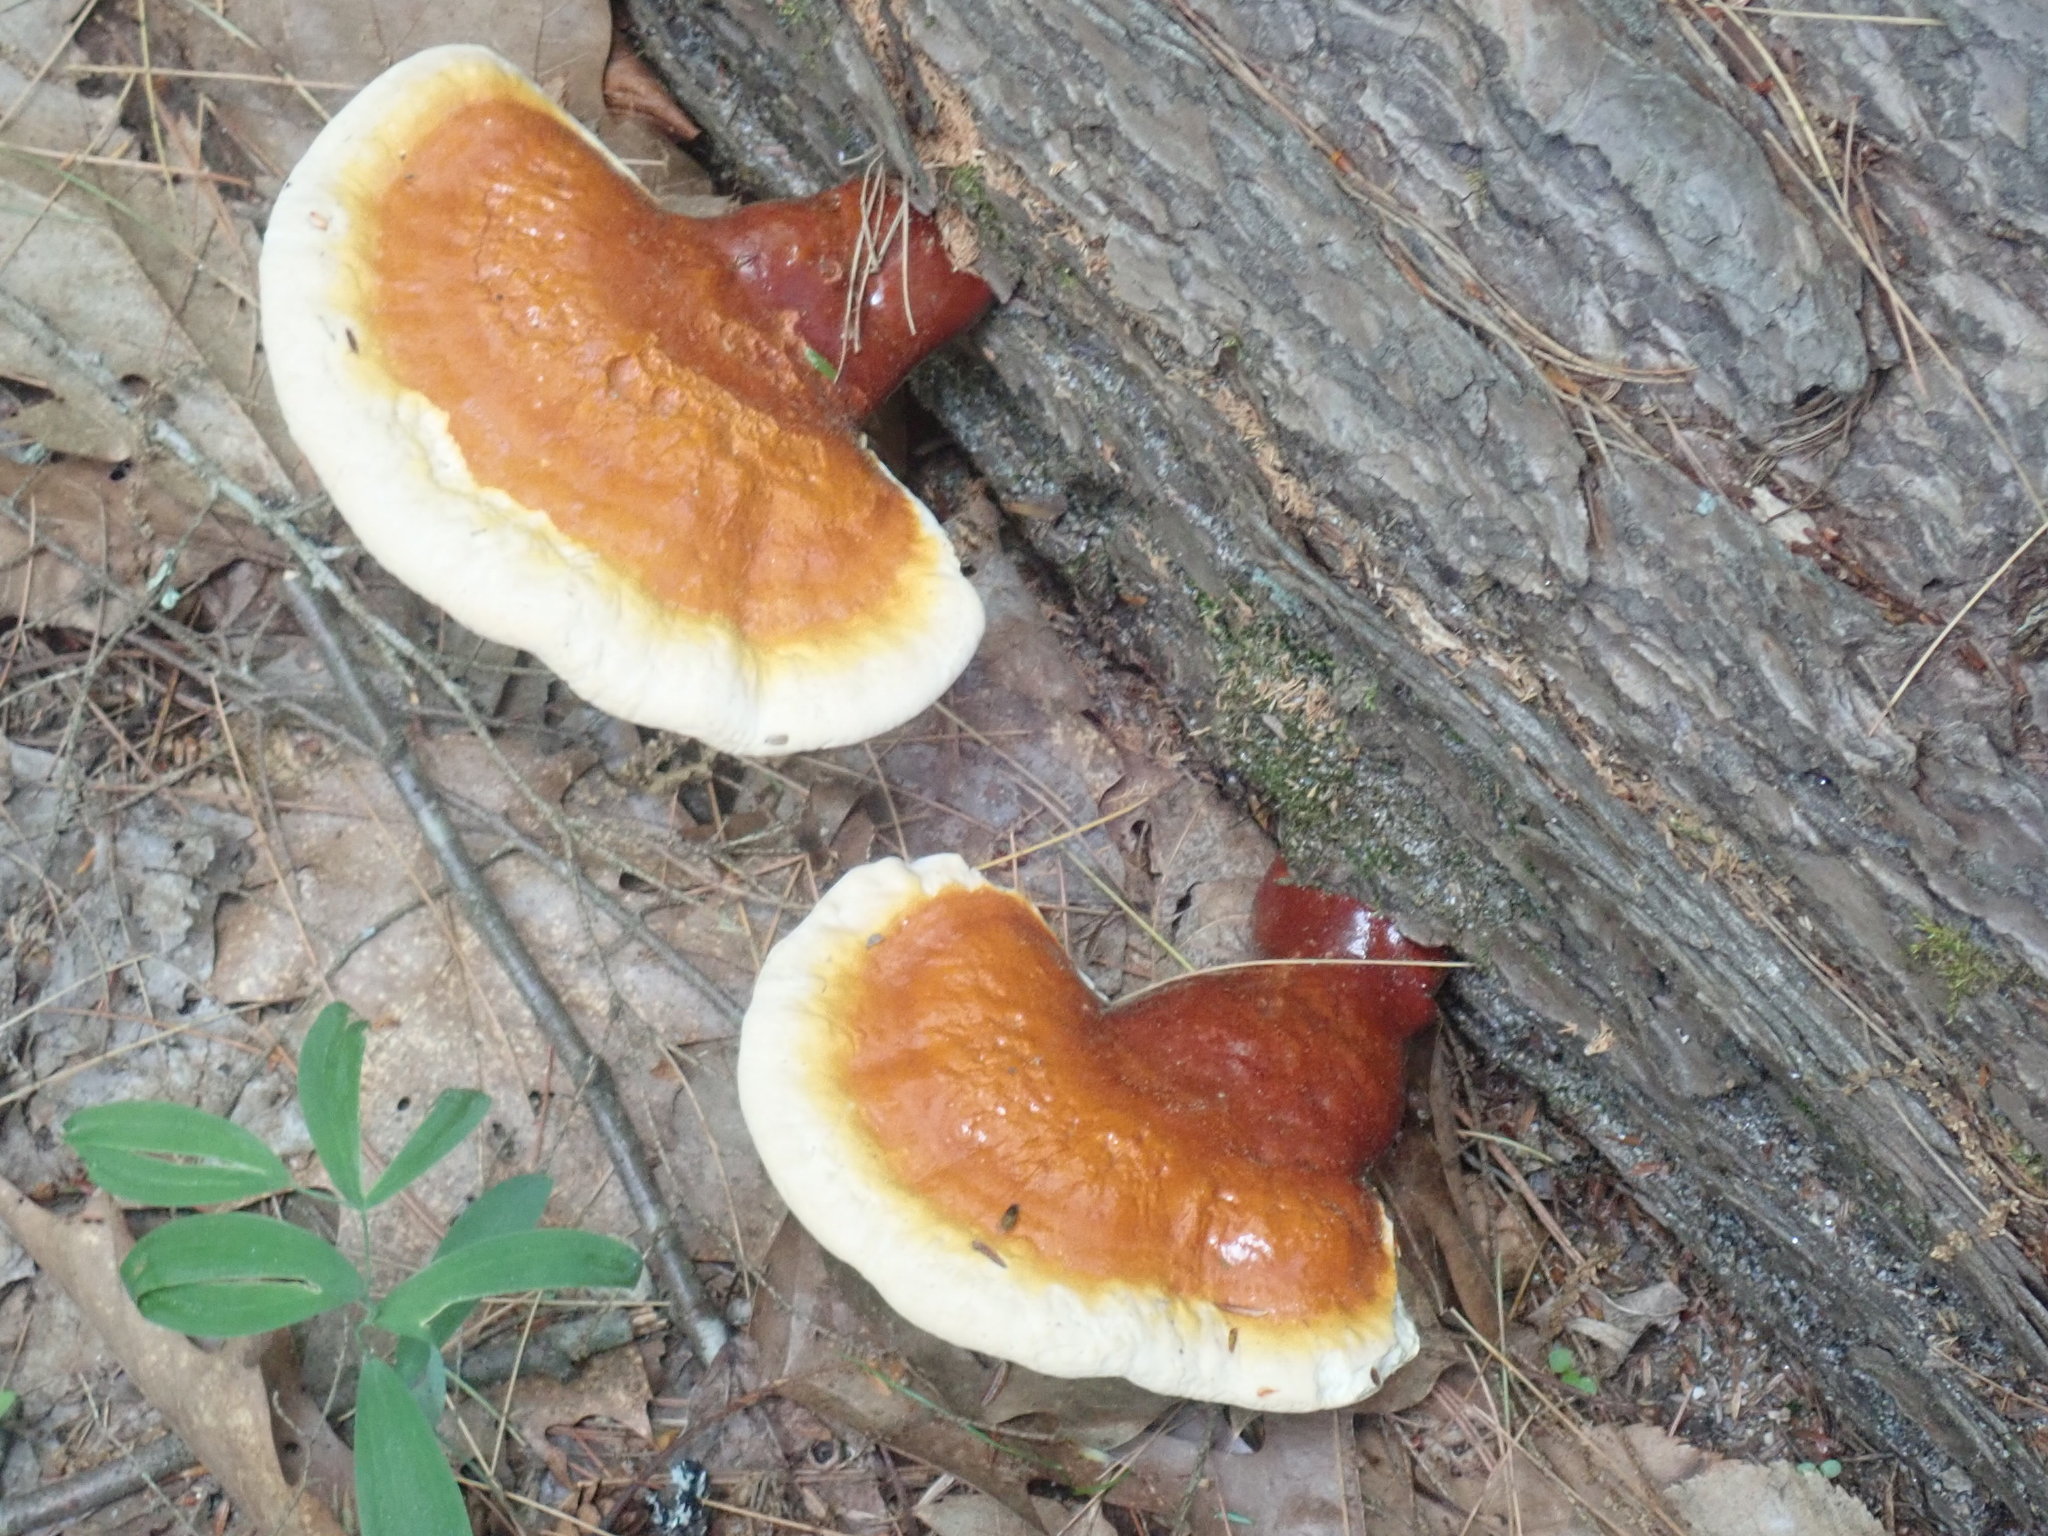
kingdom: Fungi
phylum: Basidiomycota
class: Agaricomycetes
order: Polyporales
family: Polyporaceae
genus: Ganoderma
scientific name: Ganoderma tsugae
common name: Hemlock varnish shelf
